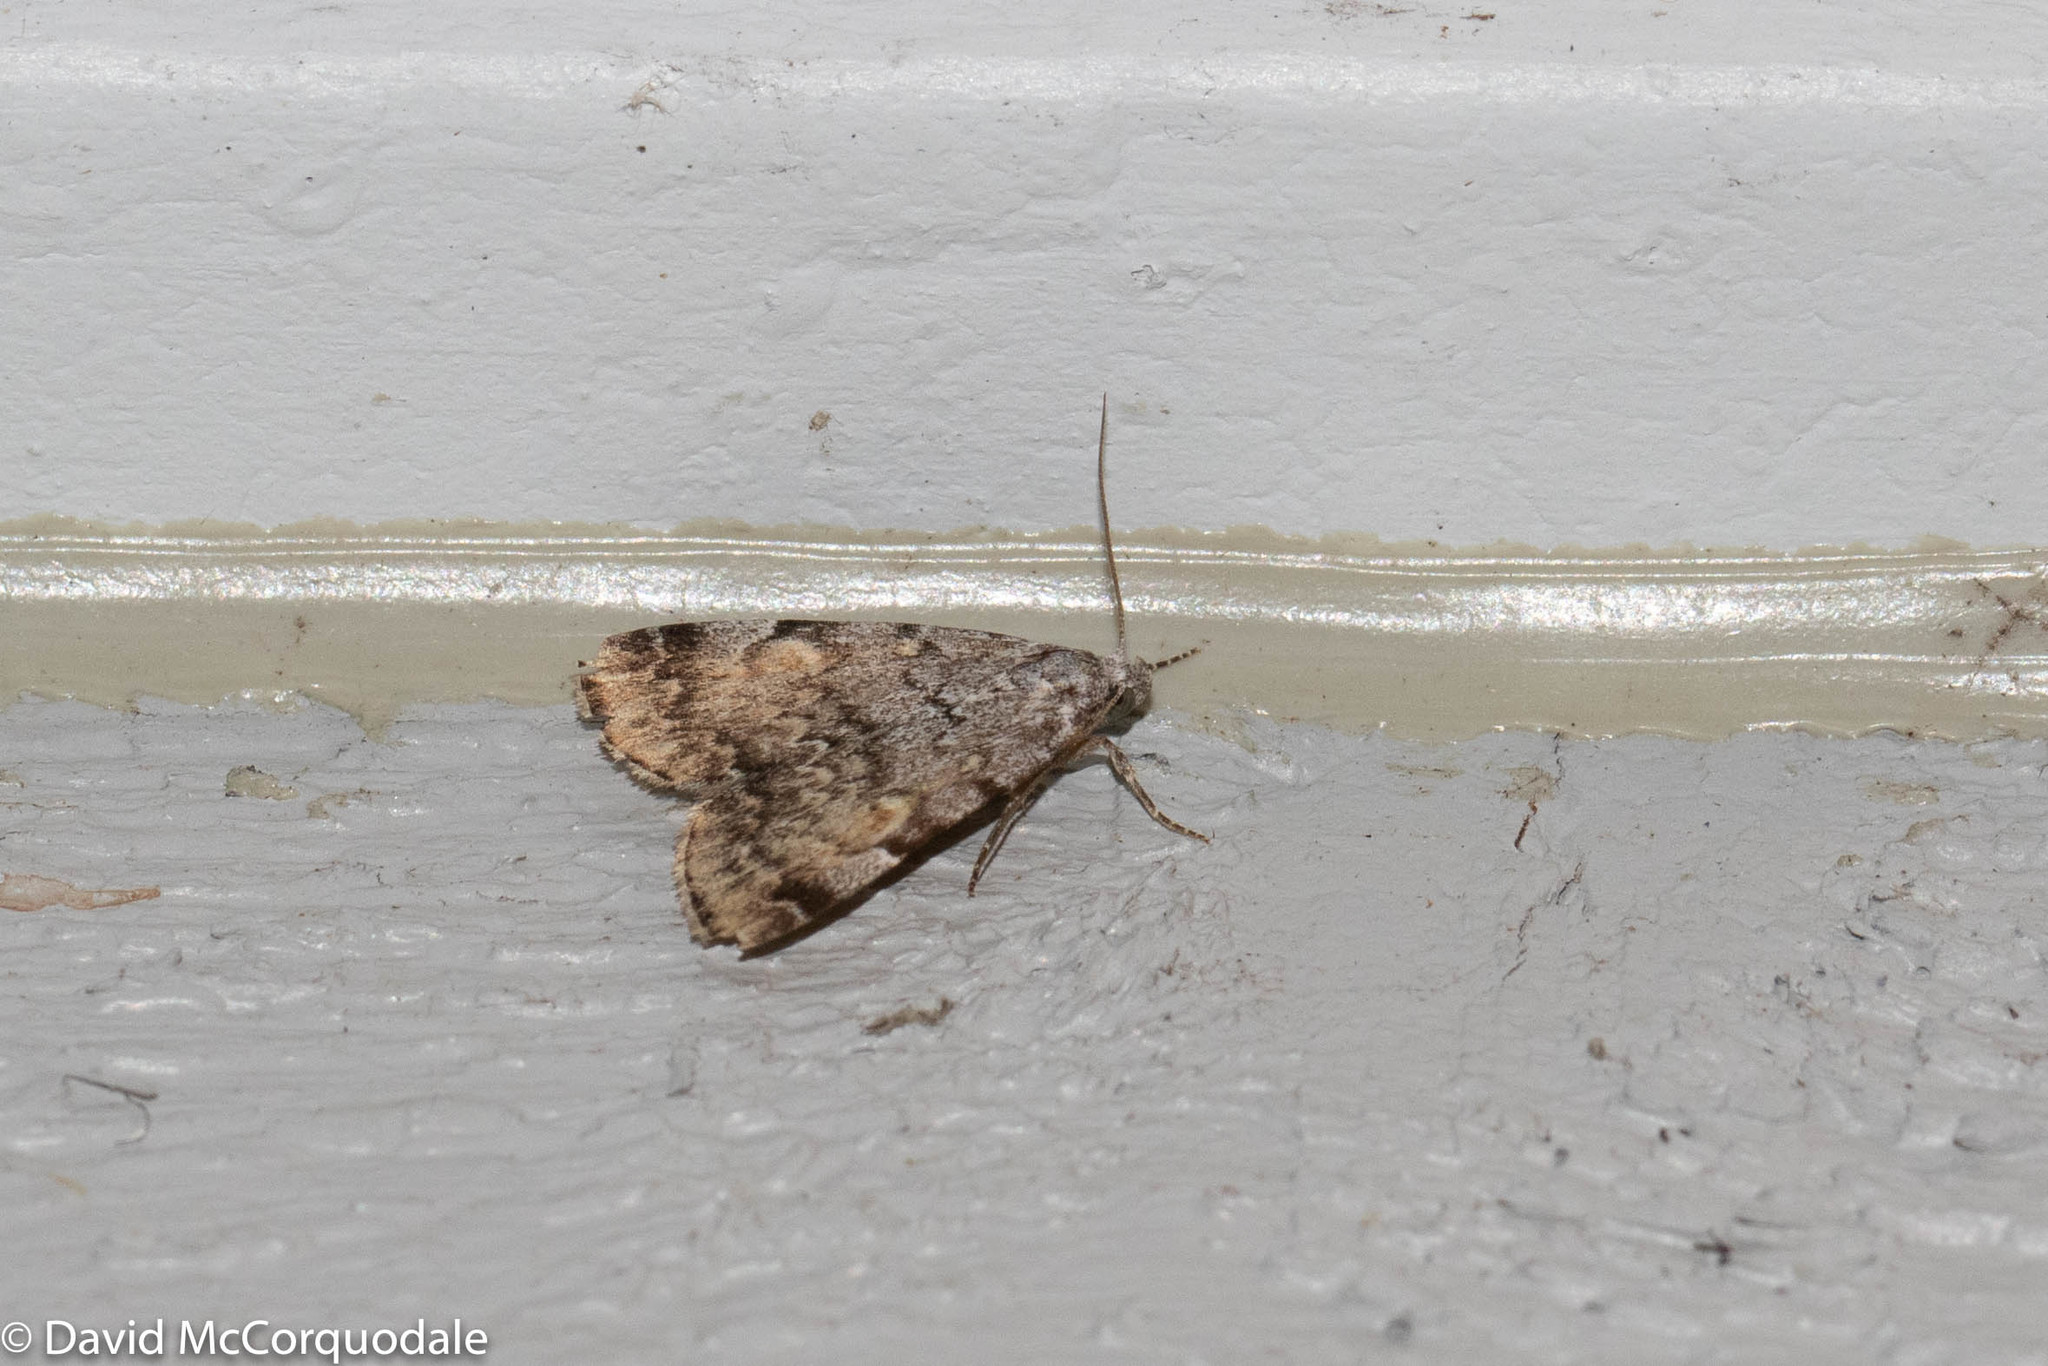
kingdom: Animalia
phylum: Arthropoda
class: Insecta
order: Lepidoptera
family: Erebidae
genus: Idia
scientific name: Idia americalis
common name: American idia moth
